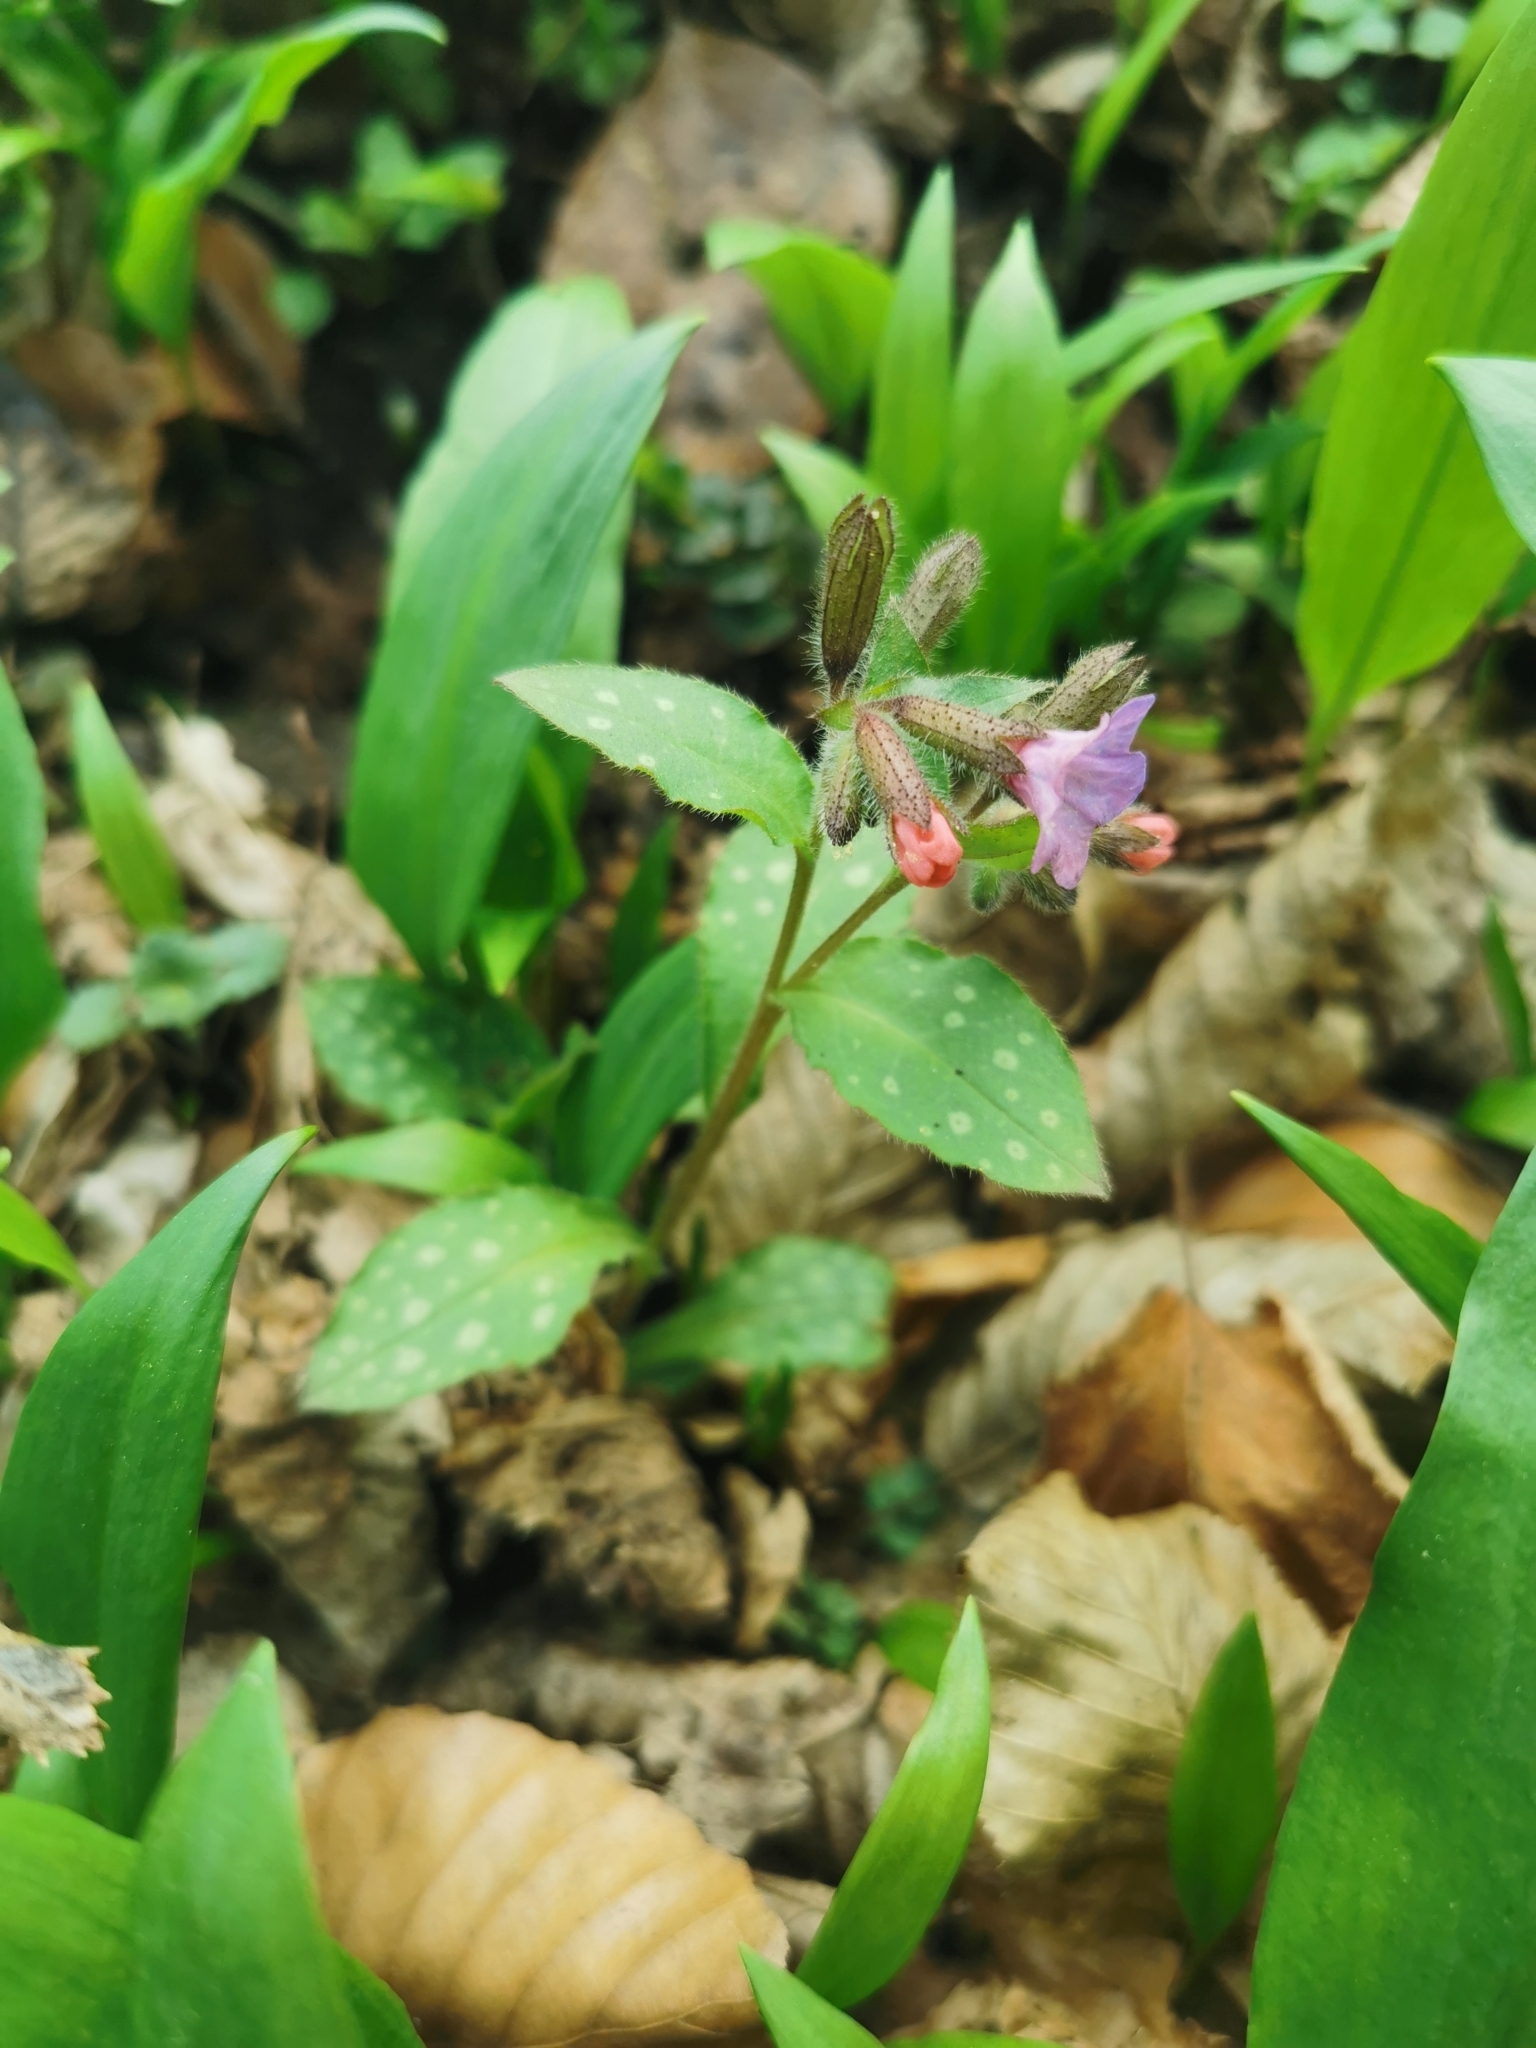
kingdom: Plantae
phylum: Tracheophyta
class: Magnoliopsida
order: Boraginales
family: Boraginaceae
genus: Pulmonaria
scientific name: Pulmonaria officinalis
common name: Lungwort
